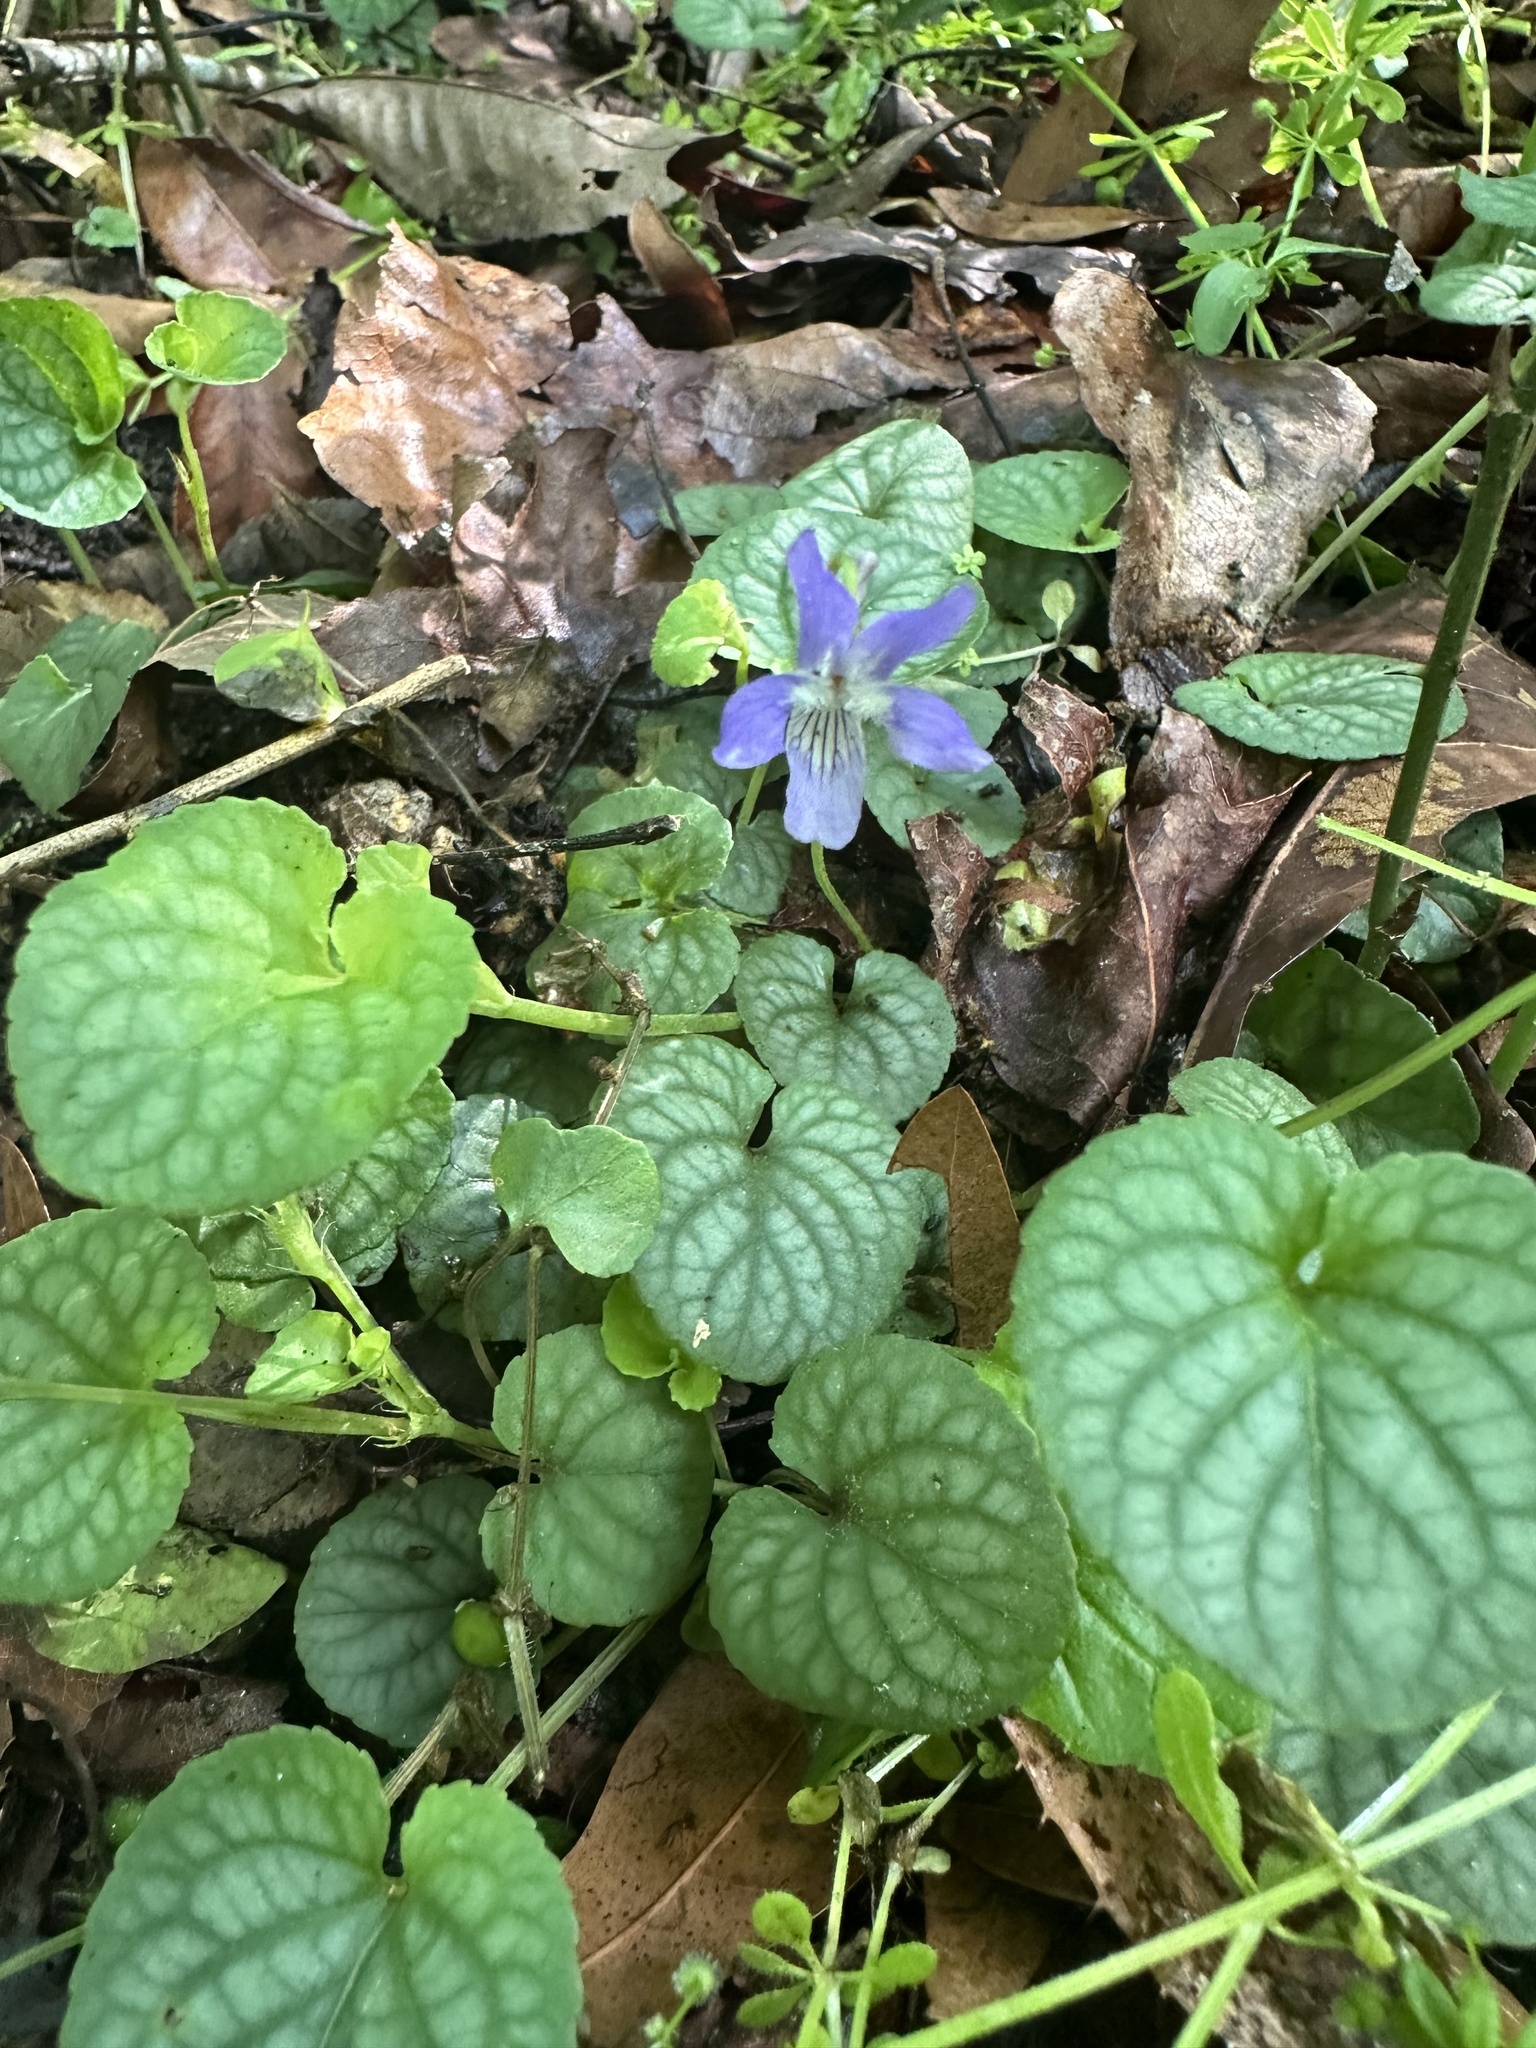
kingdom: Plantae
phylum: Tracheophyta
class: Magnoliopsida
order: Malpighiales
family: Violaceae
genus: Viola
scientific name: Viola walteri
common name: Prostrate southern violet
